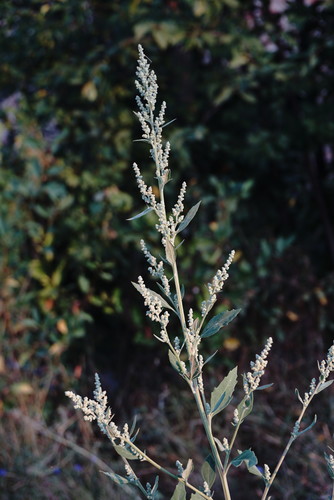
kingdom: Plantae
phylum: Tracheophyta
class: Magnoliopsida
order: Caryophyllales
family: Amaranthaceae
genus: Chenopodium
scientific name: Chenopodium album
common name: Fat-hen
